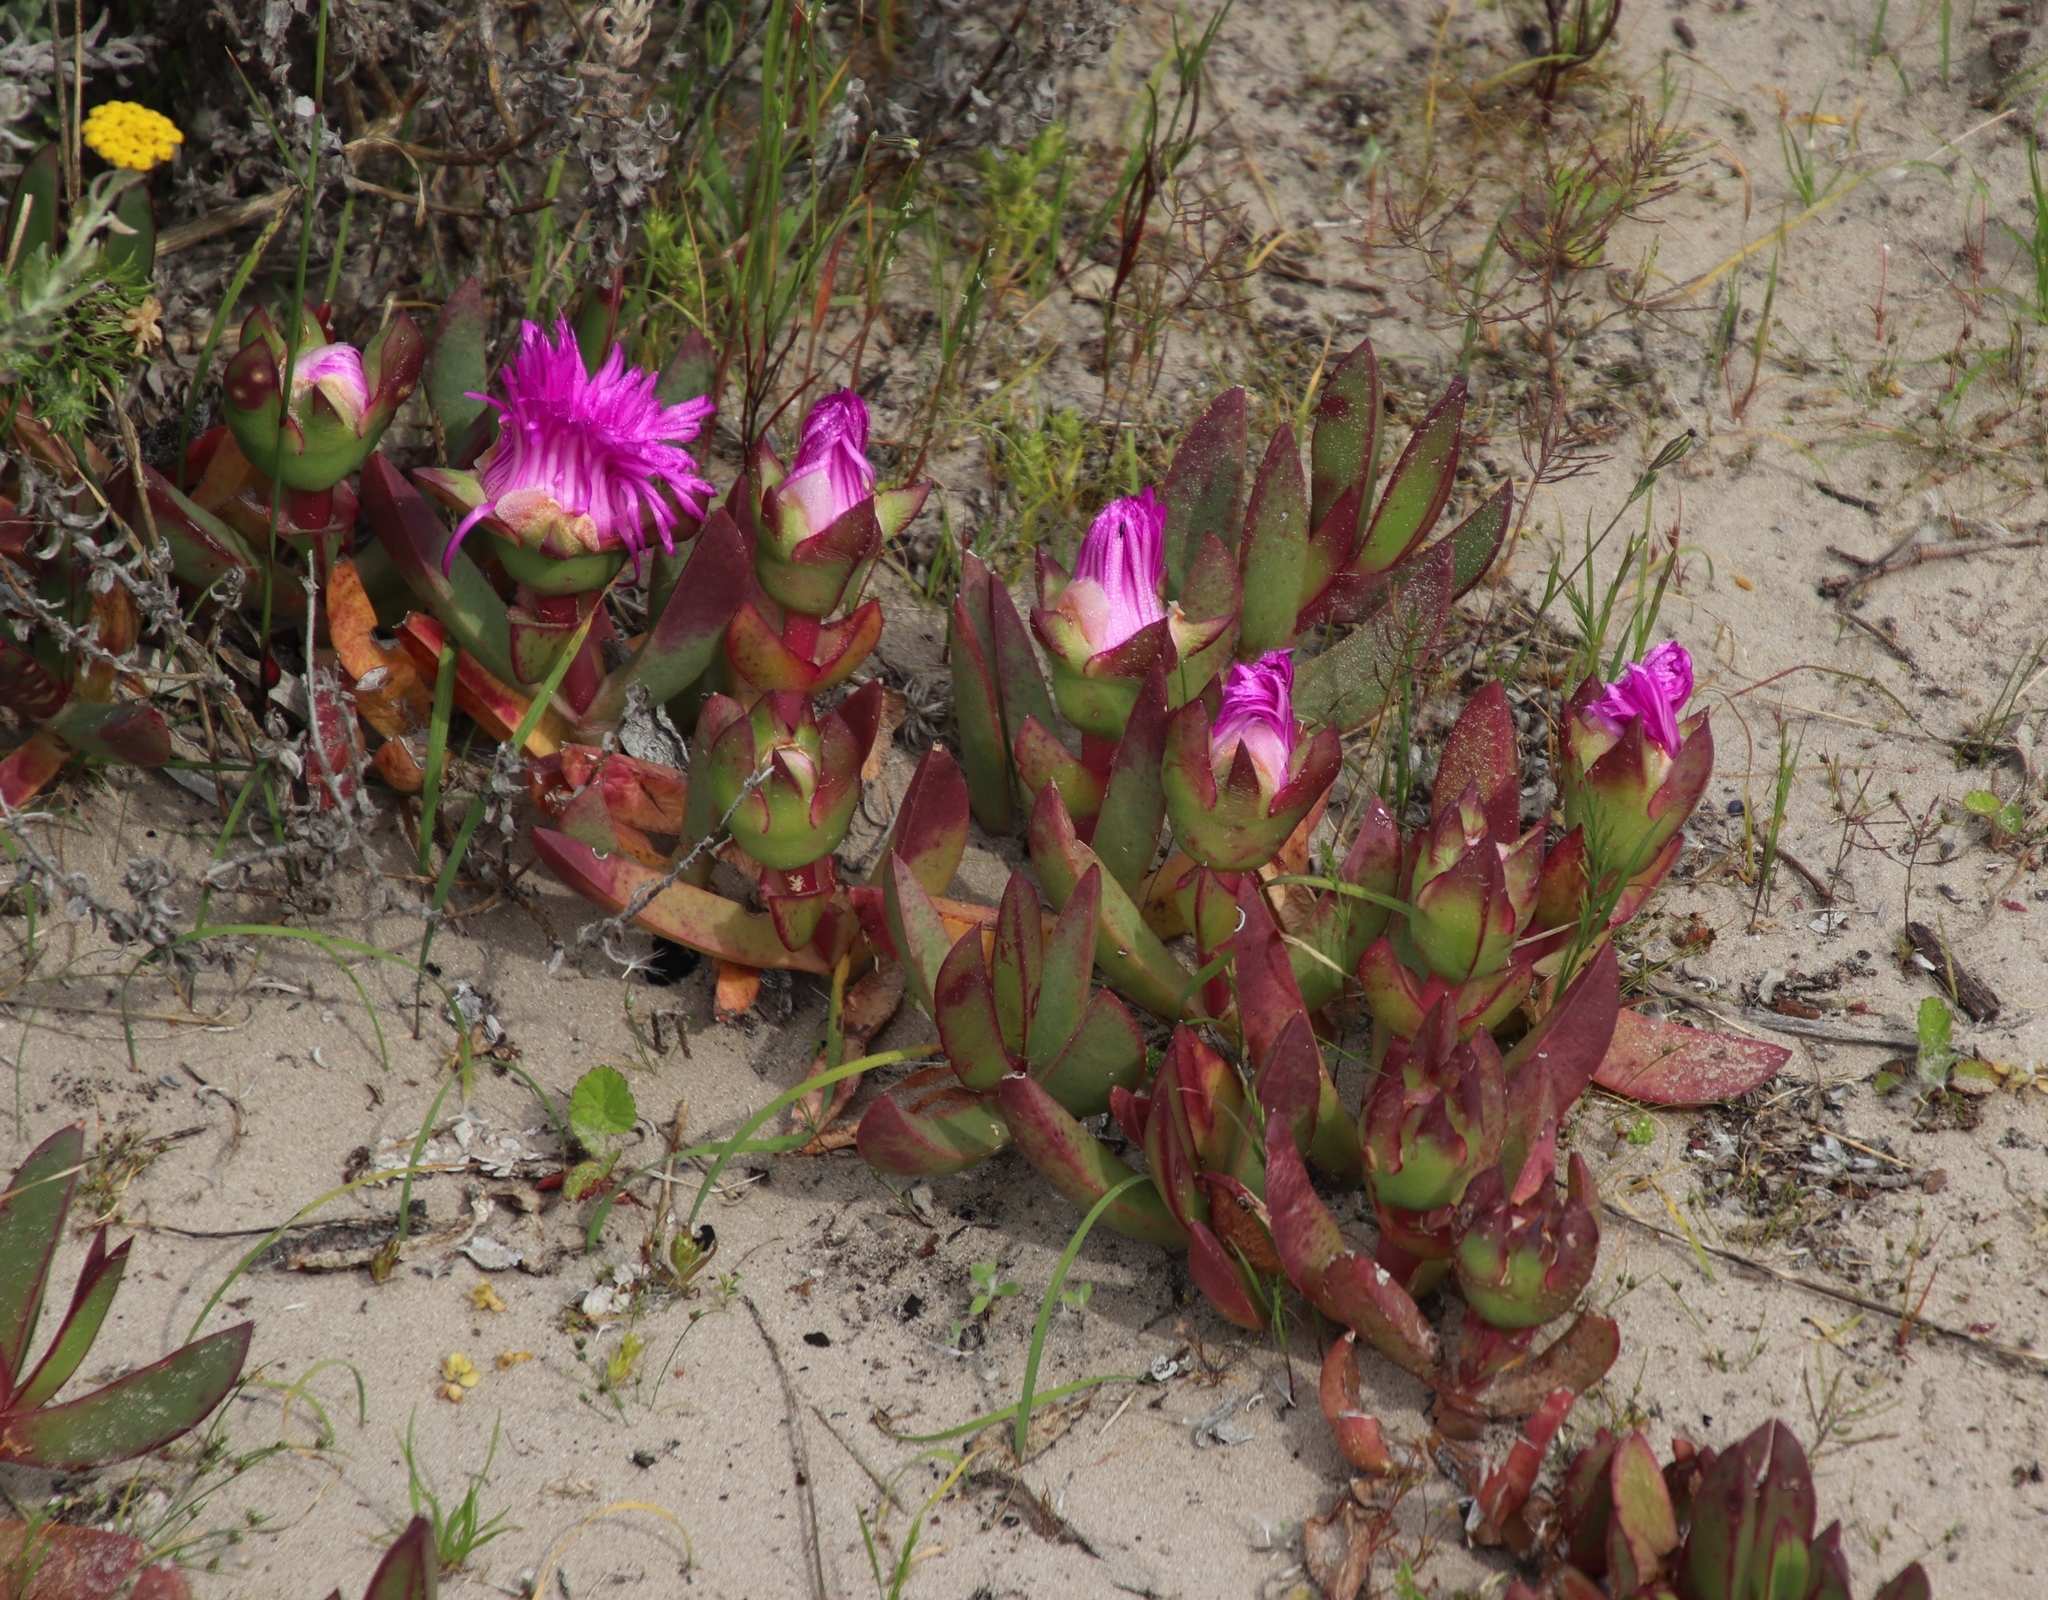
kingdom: Plantae
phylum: Tracheophyta
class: Magnoliopsida
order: Caryophyllales
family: Aizoaceae
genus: Carpobrotus
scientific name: Carpobrotus acinaciformis
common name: Sally-my-handsome
